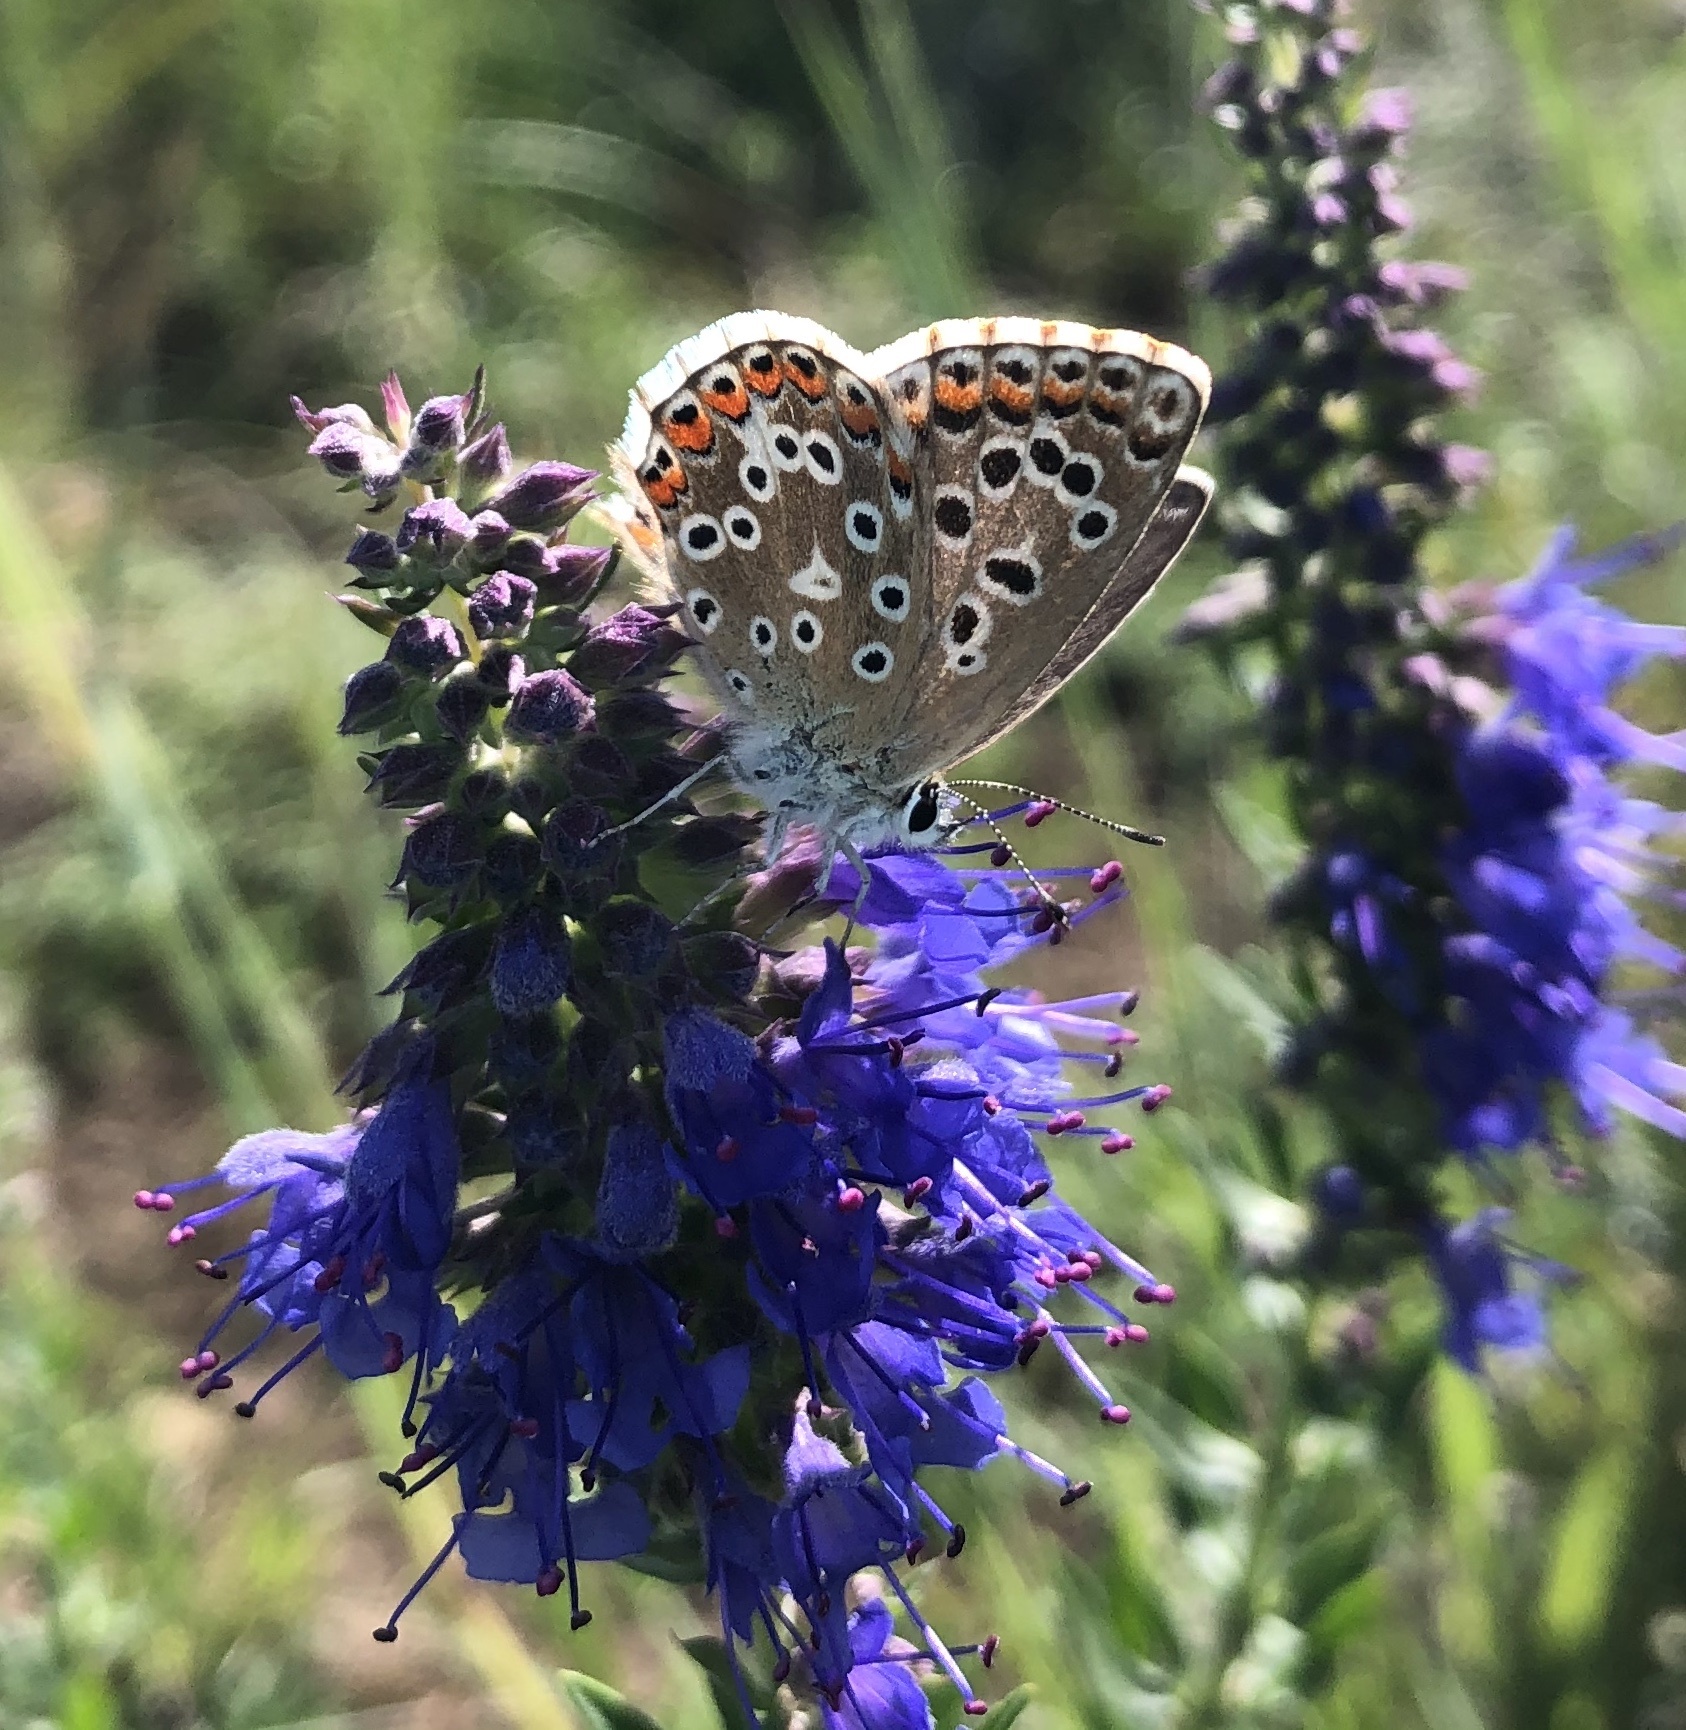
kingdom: Animalia
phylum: Arthropoda
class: Insecta
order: Lepidoptera
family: Lycaenidae
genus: Lysandra
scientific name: Lysandra bellargus
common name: Adonis blue
